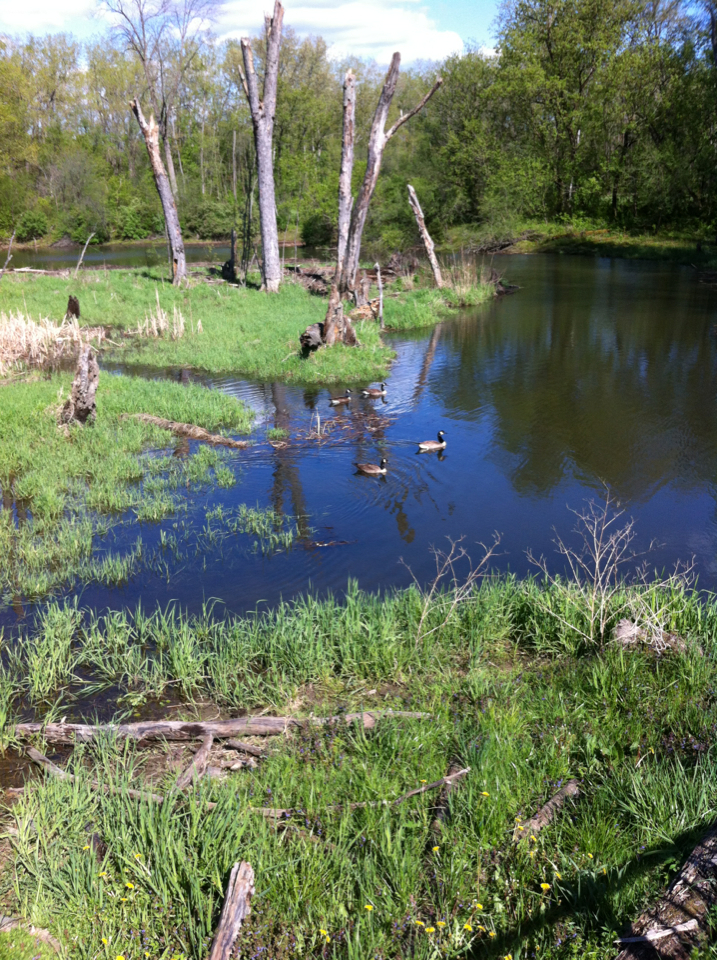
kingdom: Animalia
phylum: Chordata
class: Aves
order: Anseriformes
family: Anatidae
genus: Branta
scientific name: Branta canadensis
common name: Canada goose
